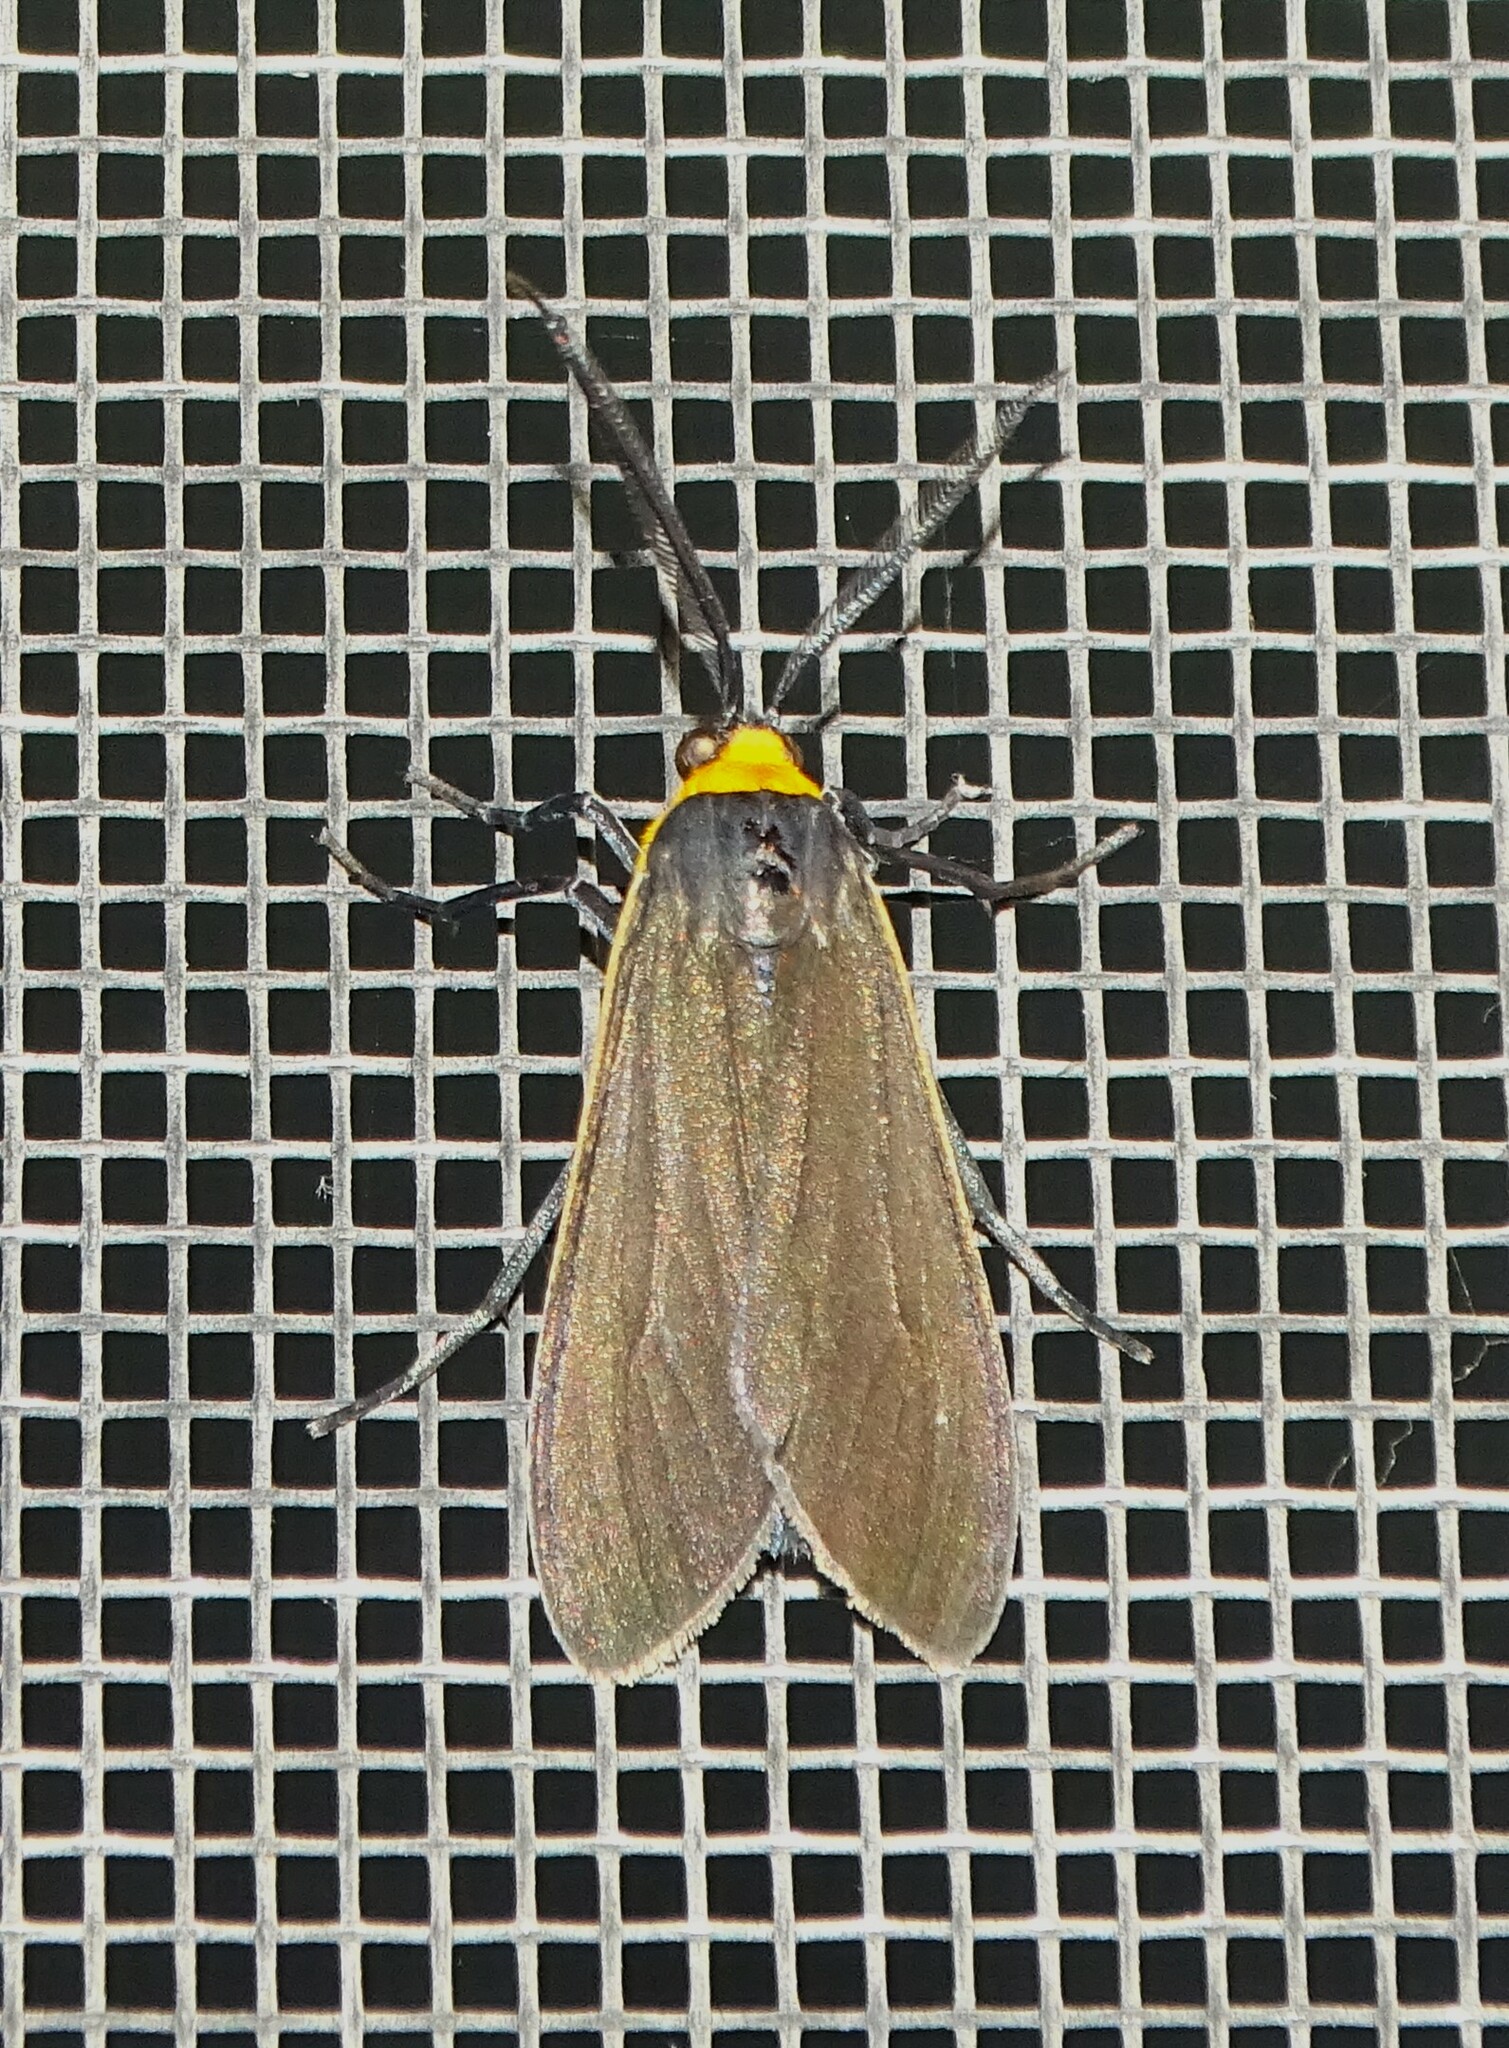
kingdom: Animalia
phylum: Arthropoda
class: Insecta
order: Lepidoptera
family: Erebidae
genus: Cisseps
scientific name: Cisseps fulvicollis
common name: Yellow-collared scape moth
